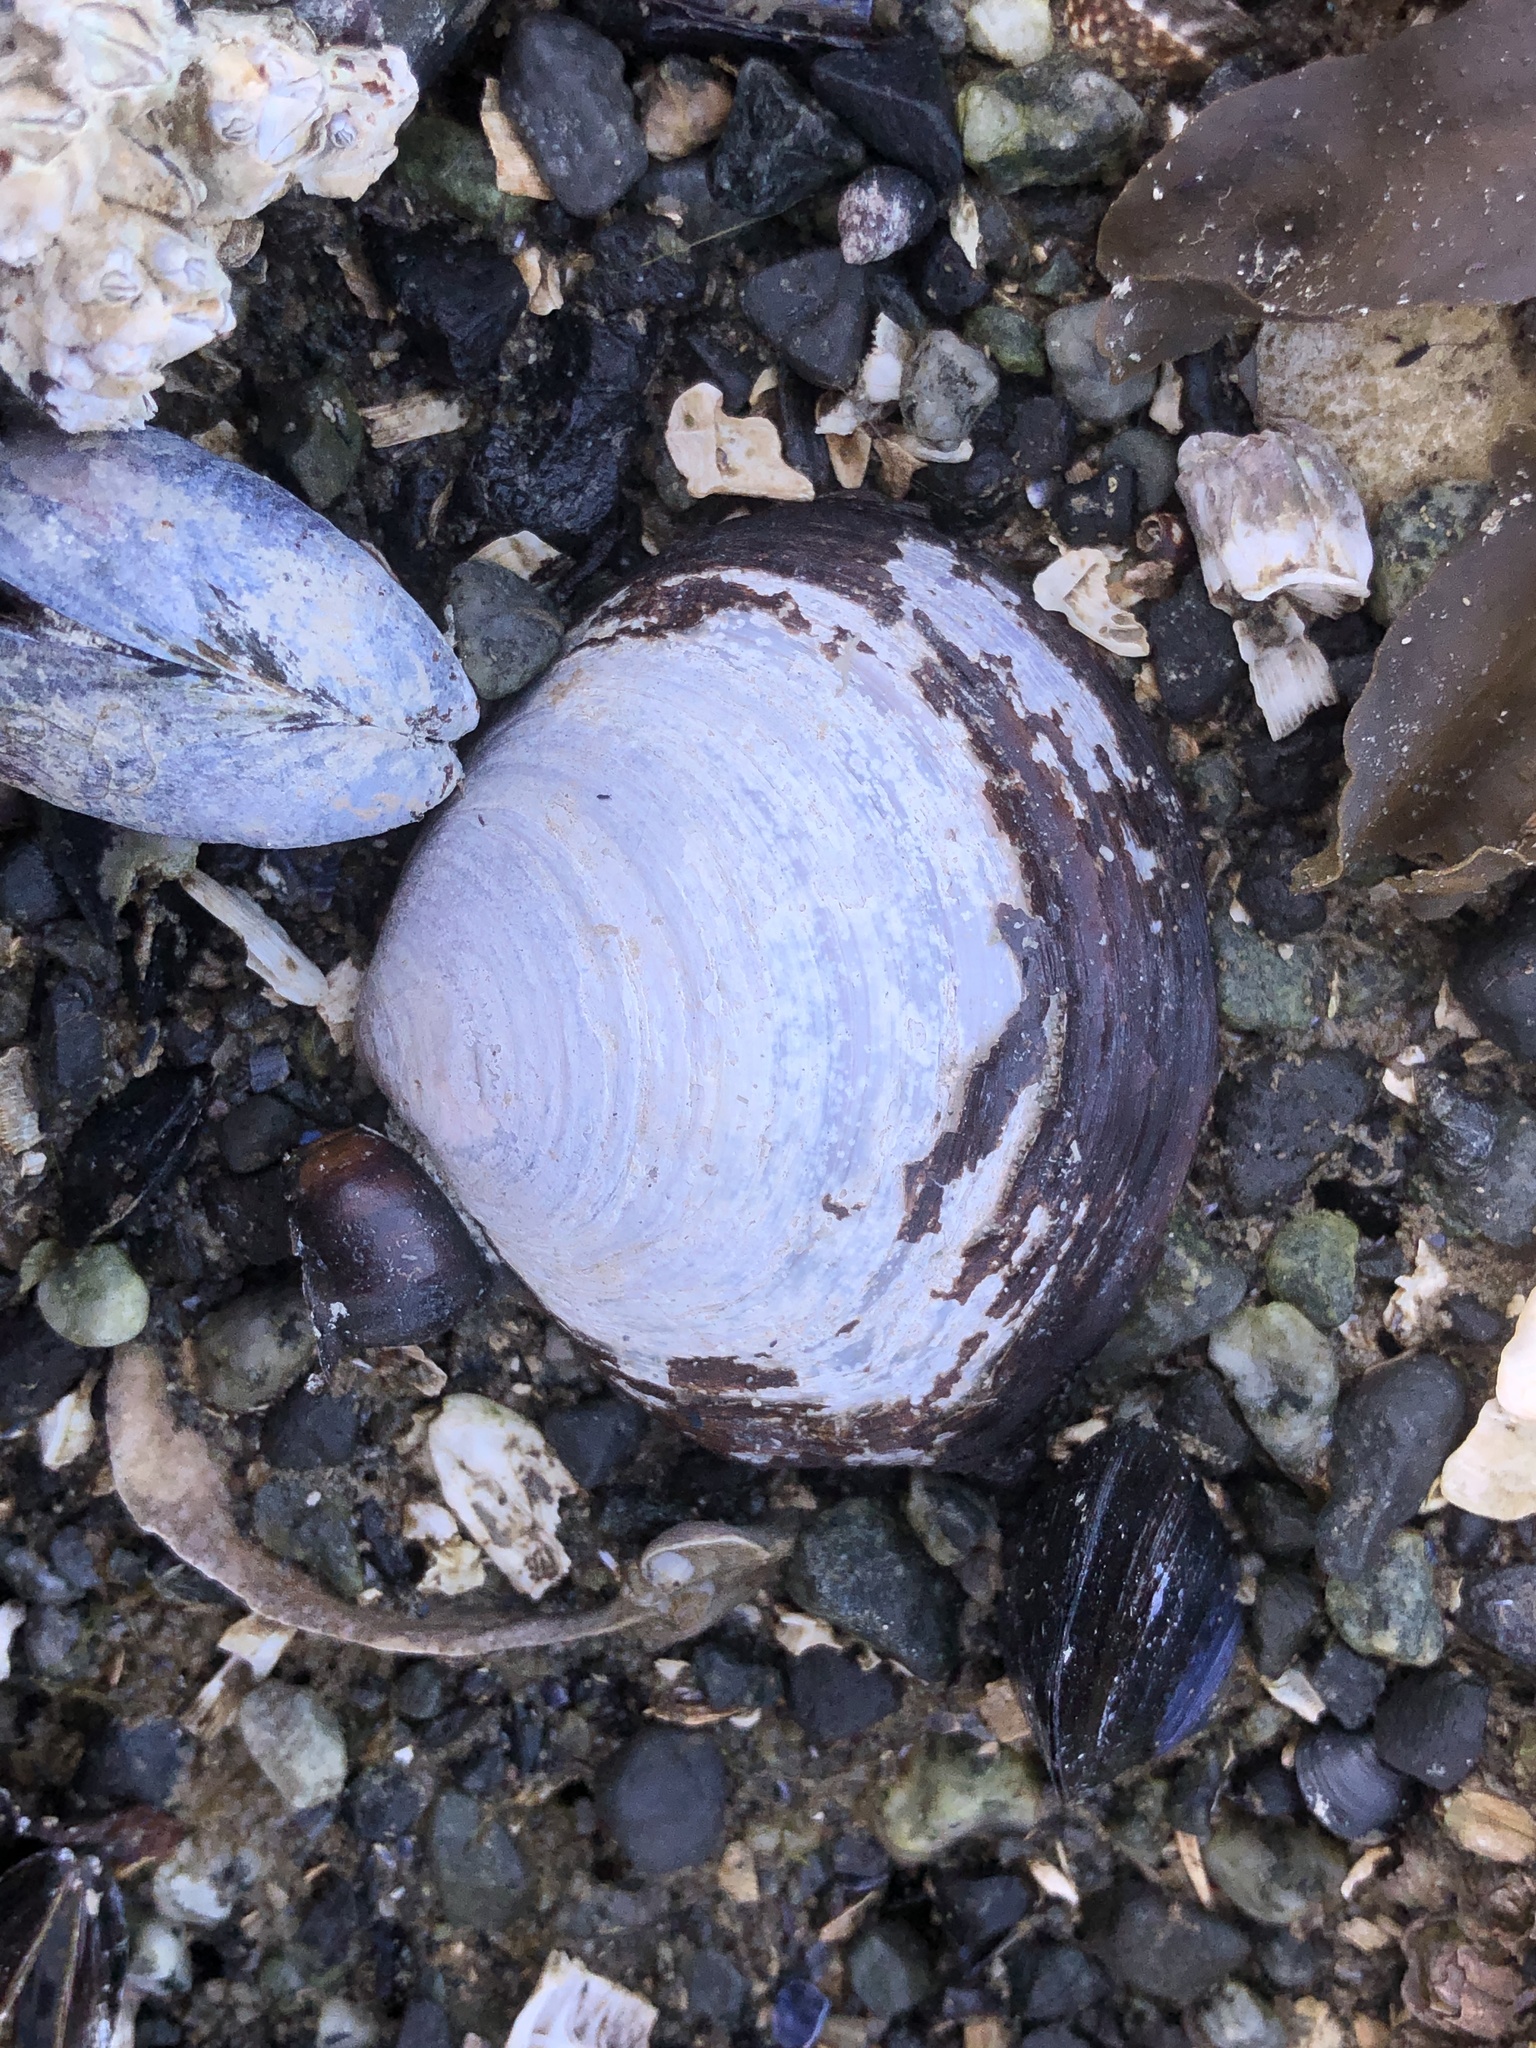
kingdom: Animalia
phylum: Mollusca
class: Bivalvia
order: Cardiida
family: Psammobiidae
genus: Nuttallia
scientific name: Nuttallia obscurata
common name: Purple mahogany-clam
